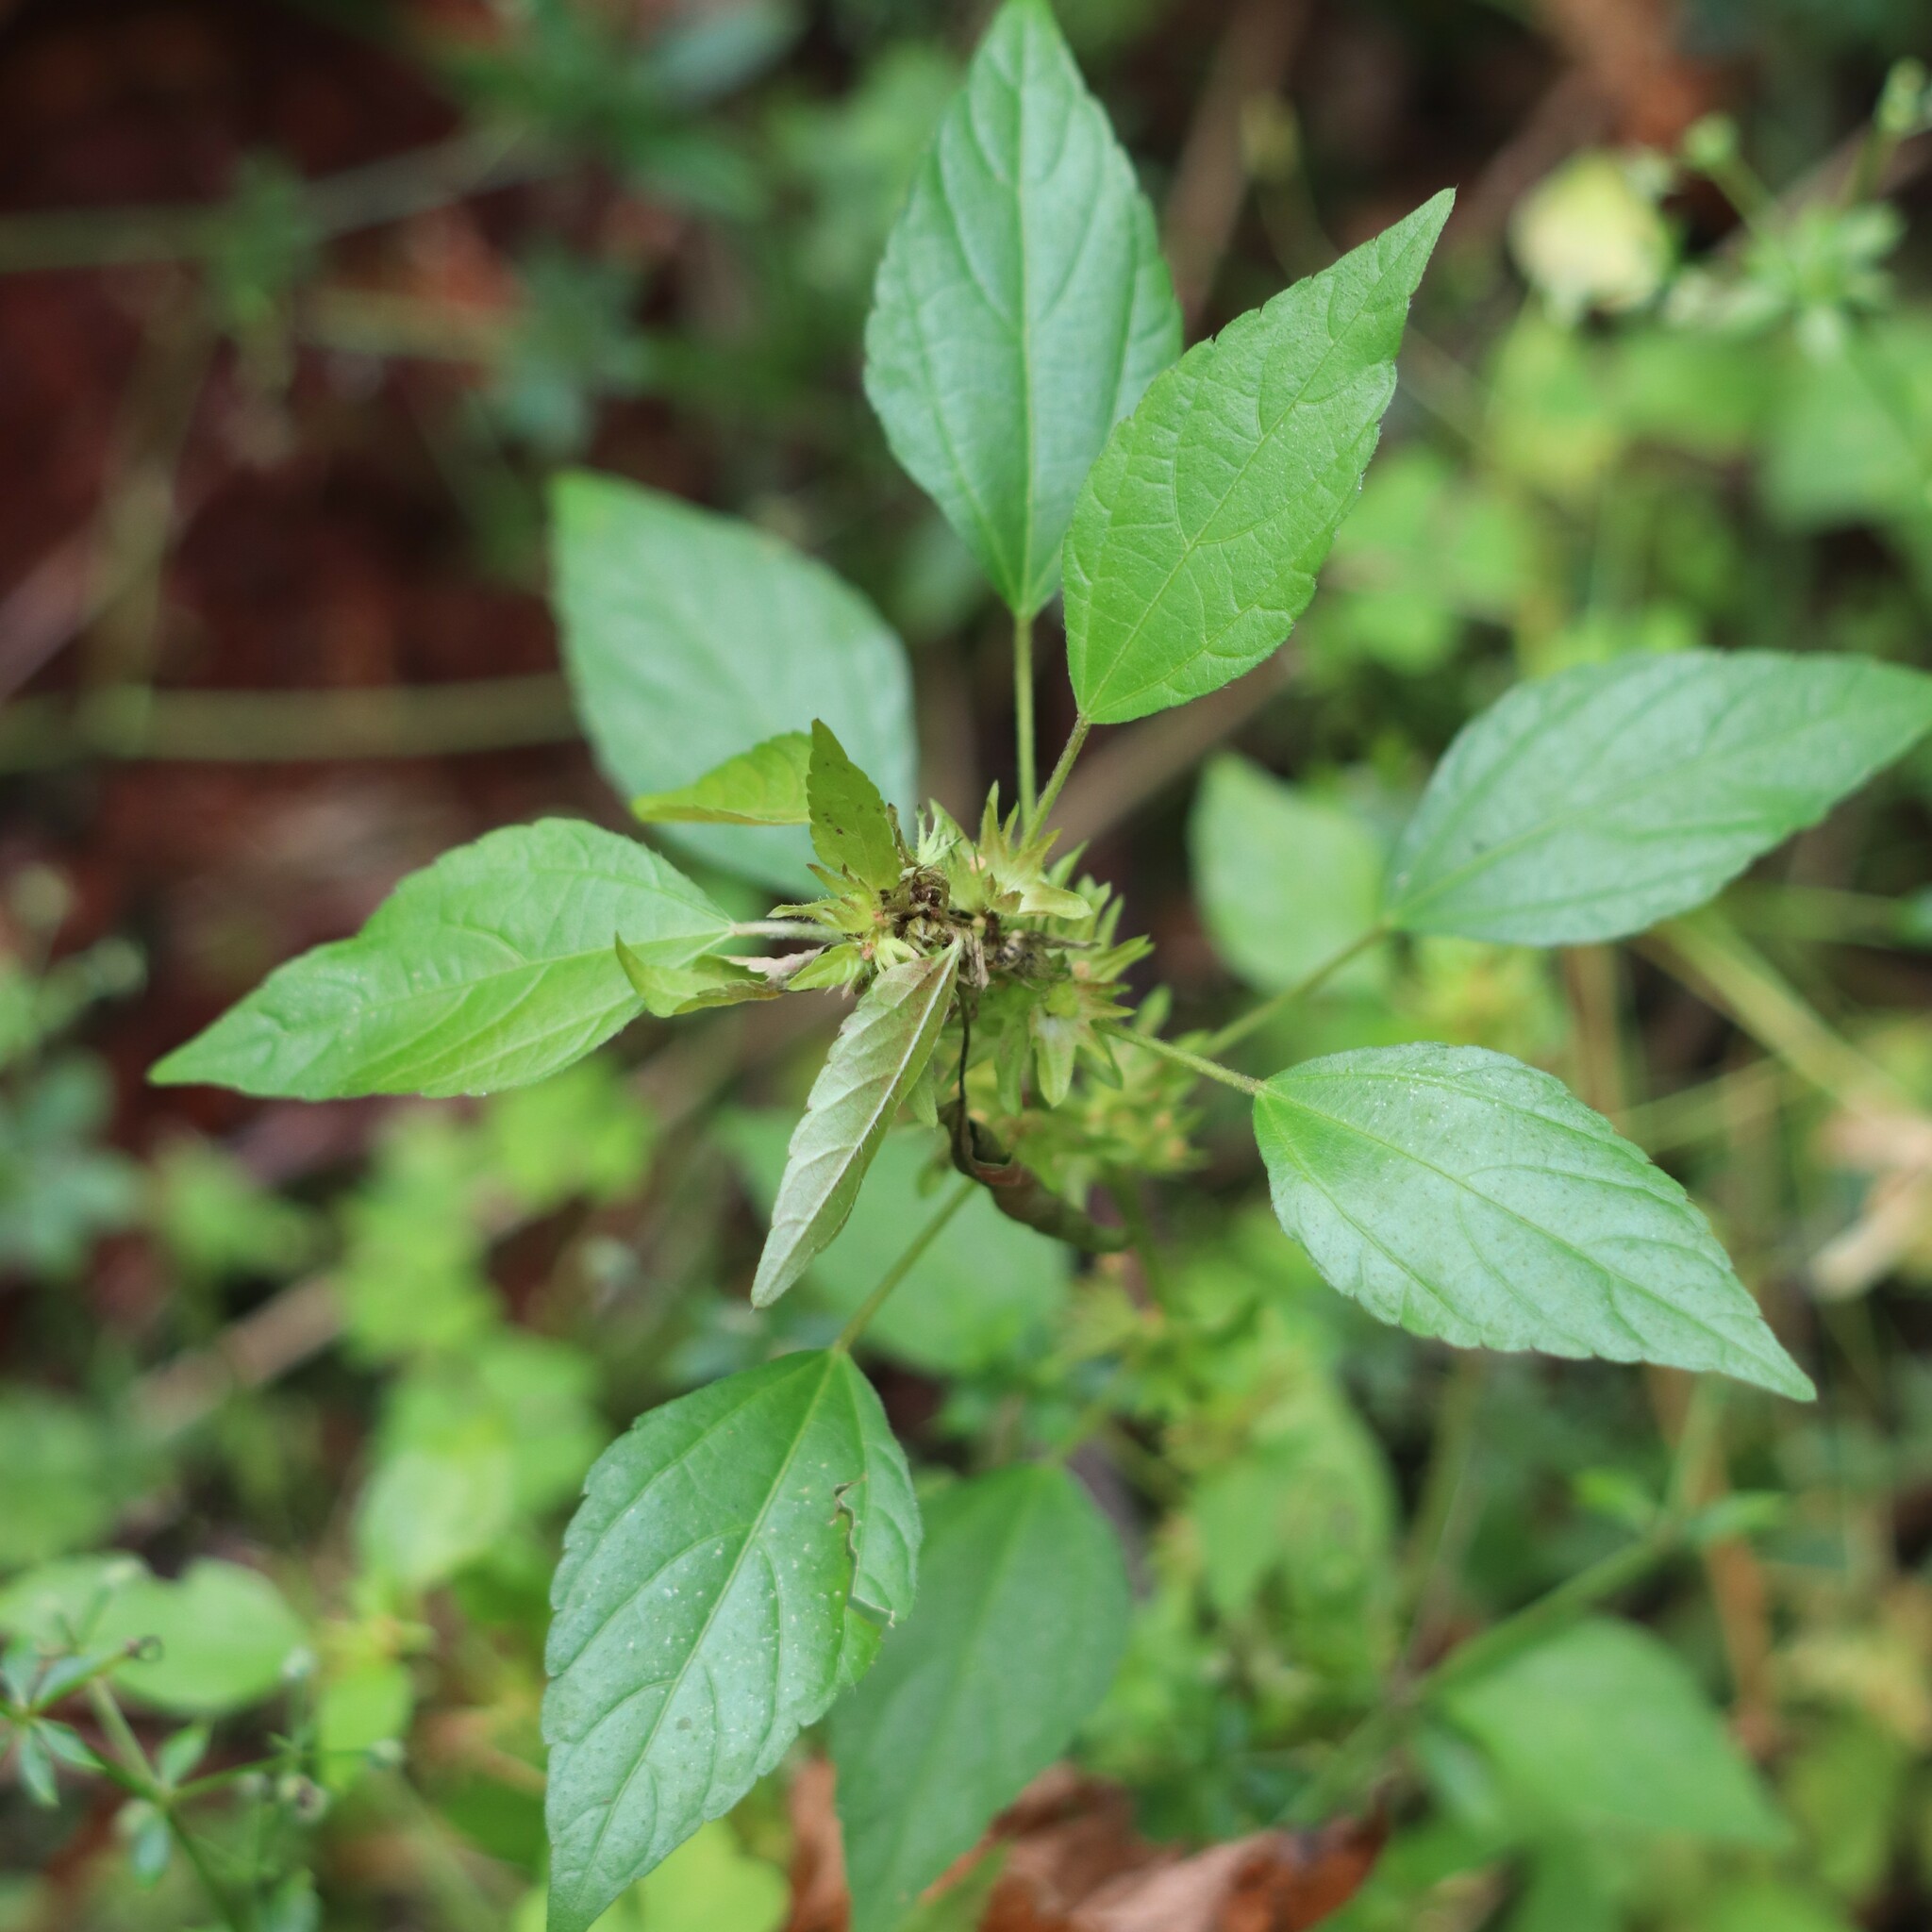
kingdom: Plantae
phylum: Tracheophyta
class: Magnoliopsida
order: Malpighiales
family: Euphorbiaceae
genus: Acalypha
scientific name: Acalypha rhomboidea
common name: Rhombic copperleaf
